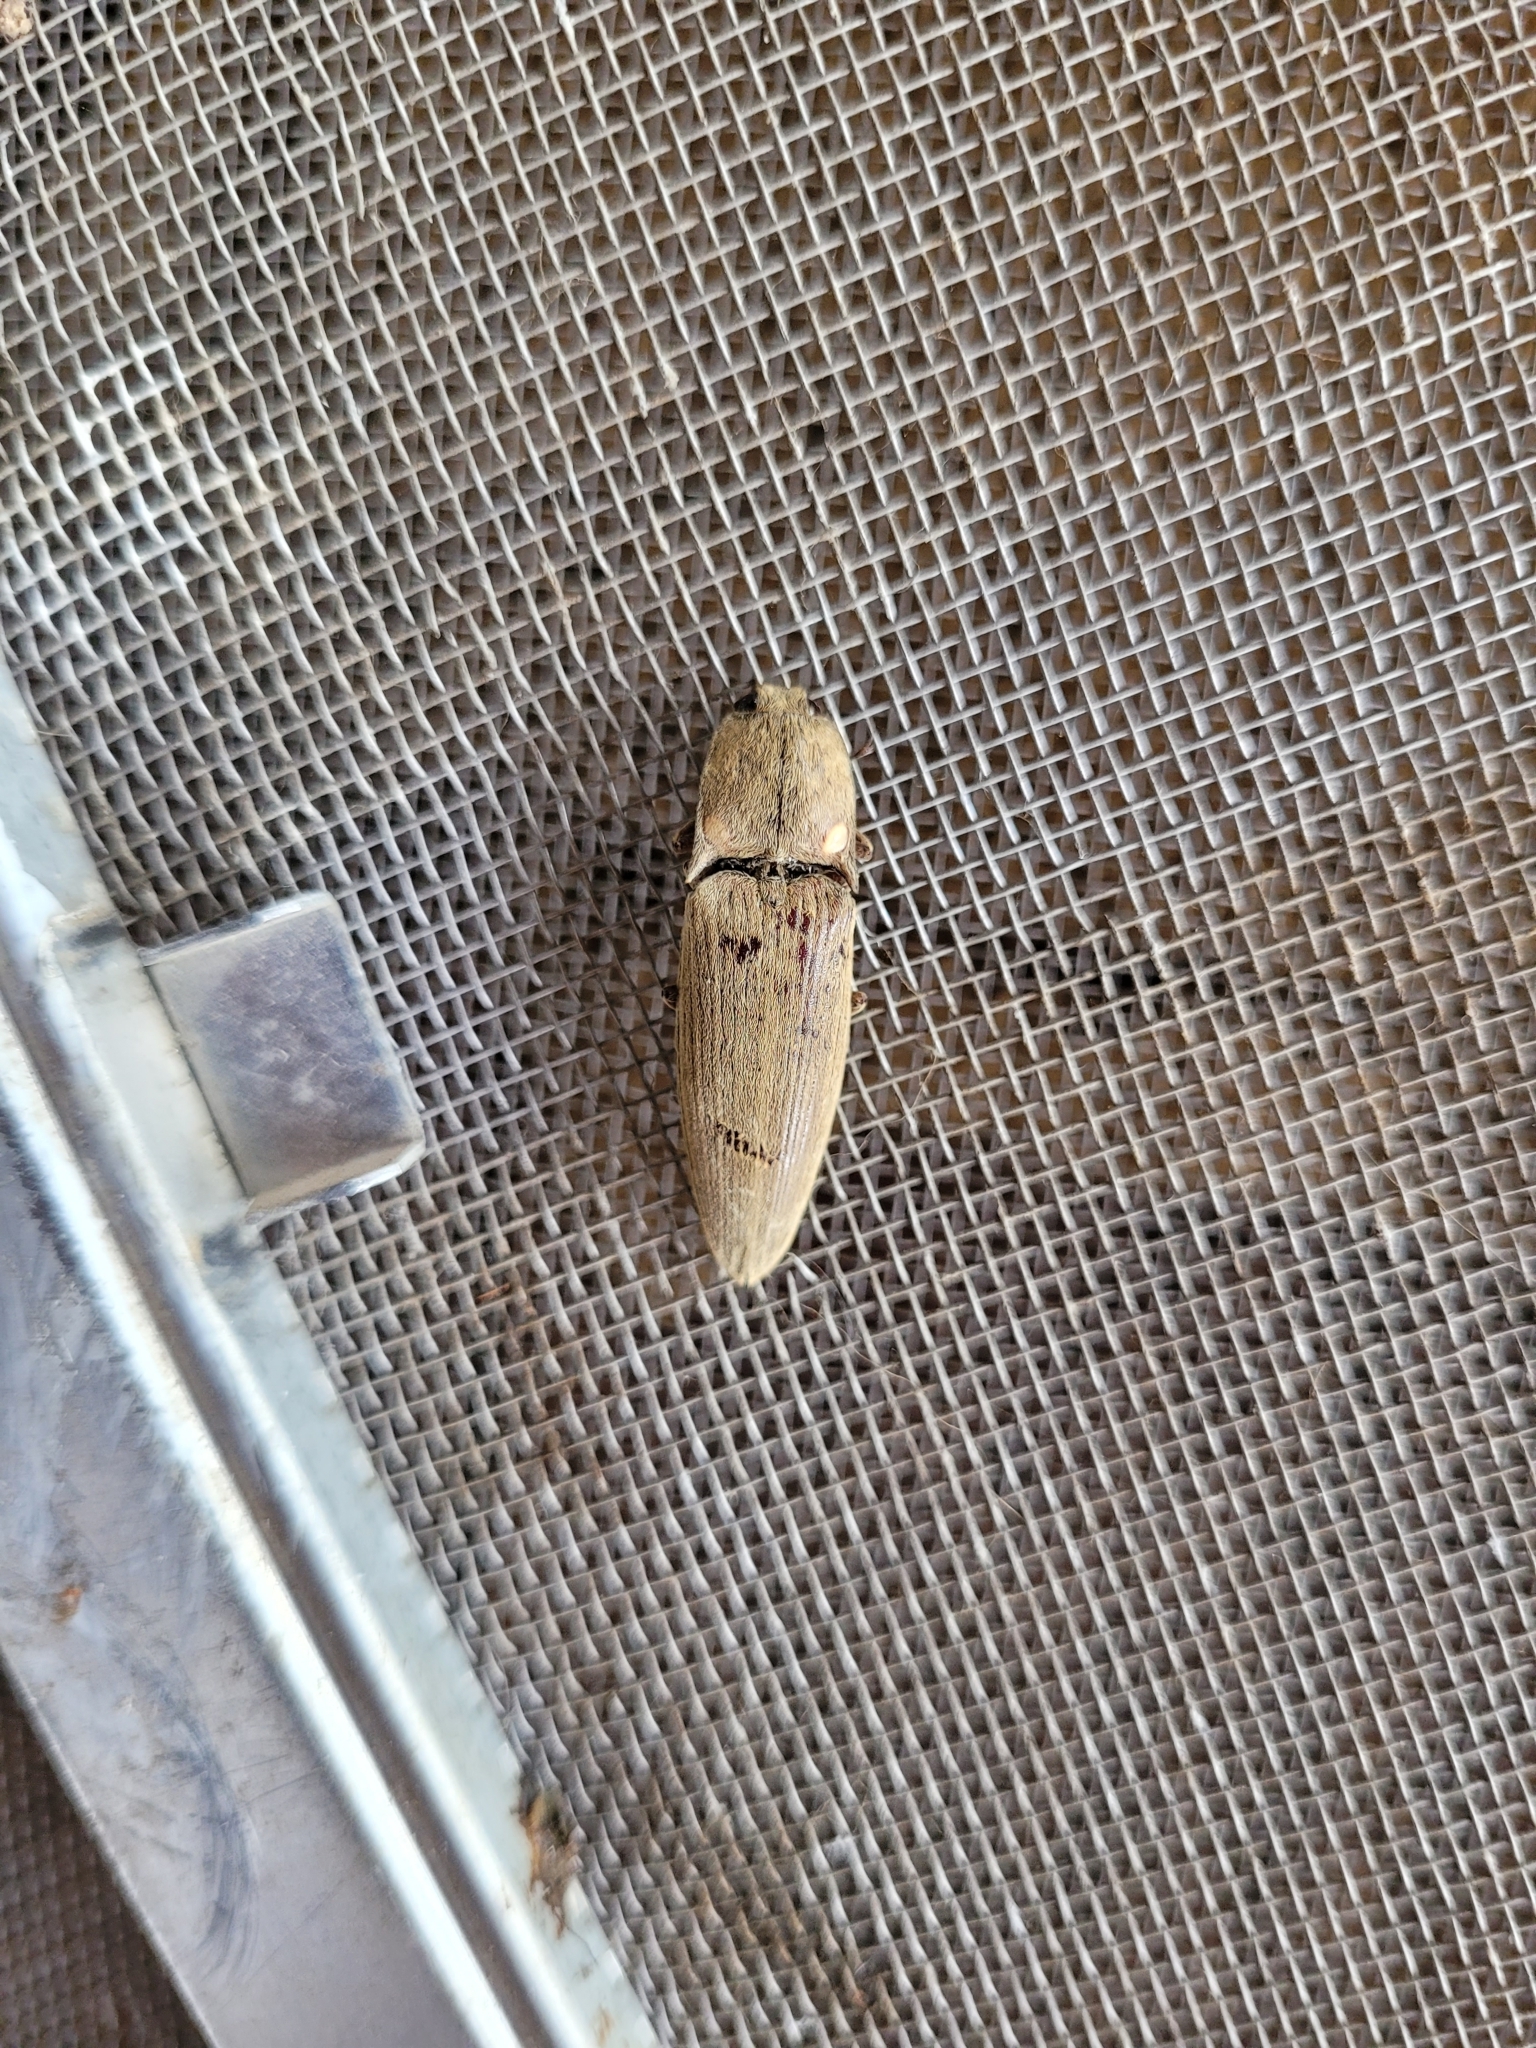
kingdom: Animalia
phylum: Arthropoda
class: Insecta
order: Coleoptera
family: Elateridae
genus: Ignelater
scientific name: Ignelater luminosus
